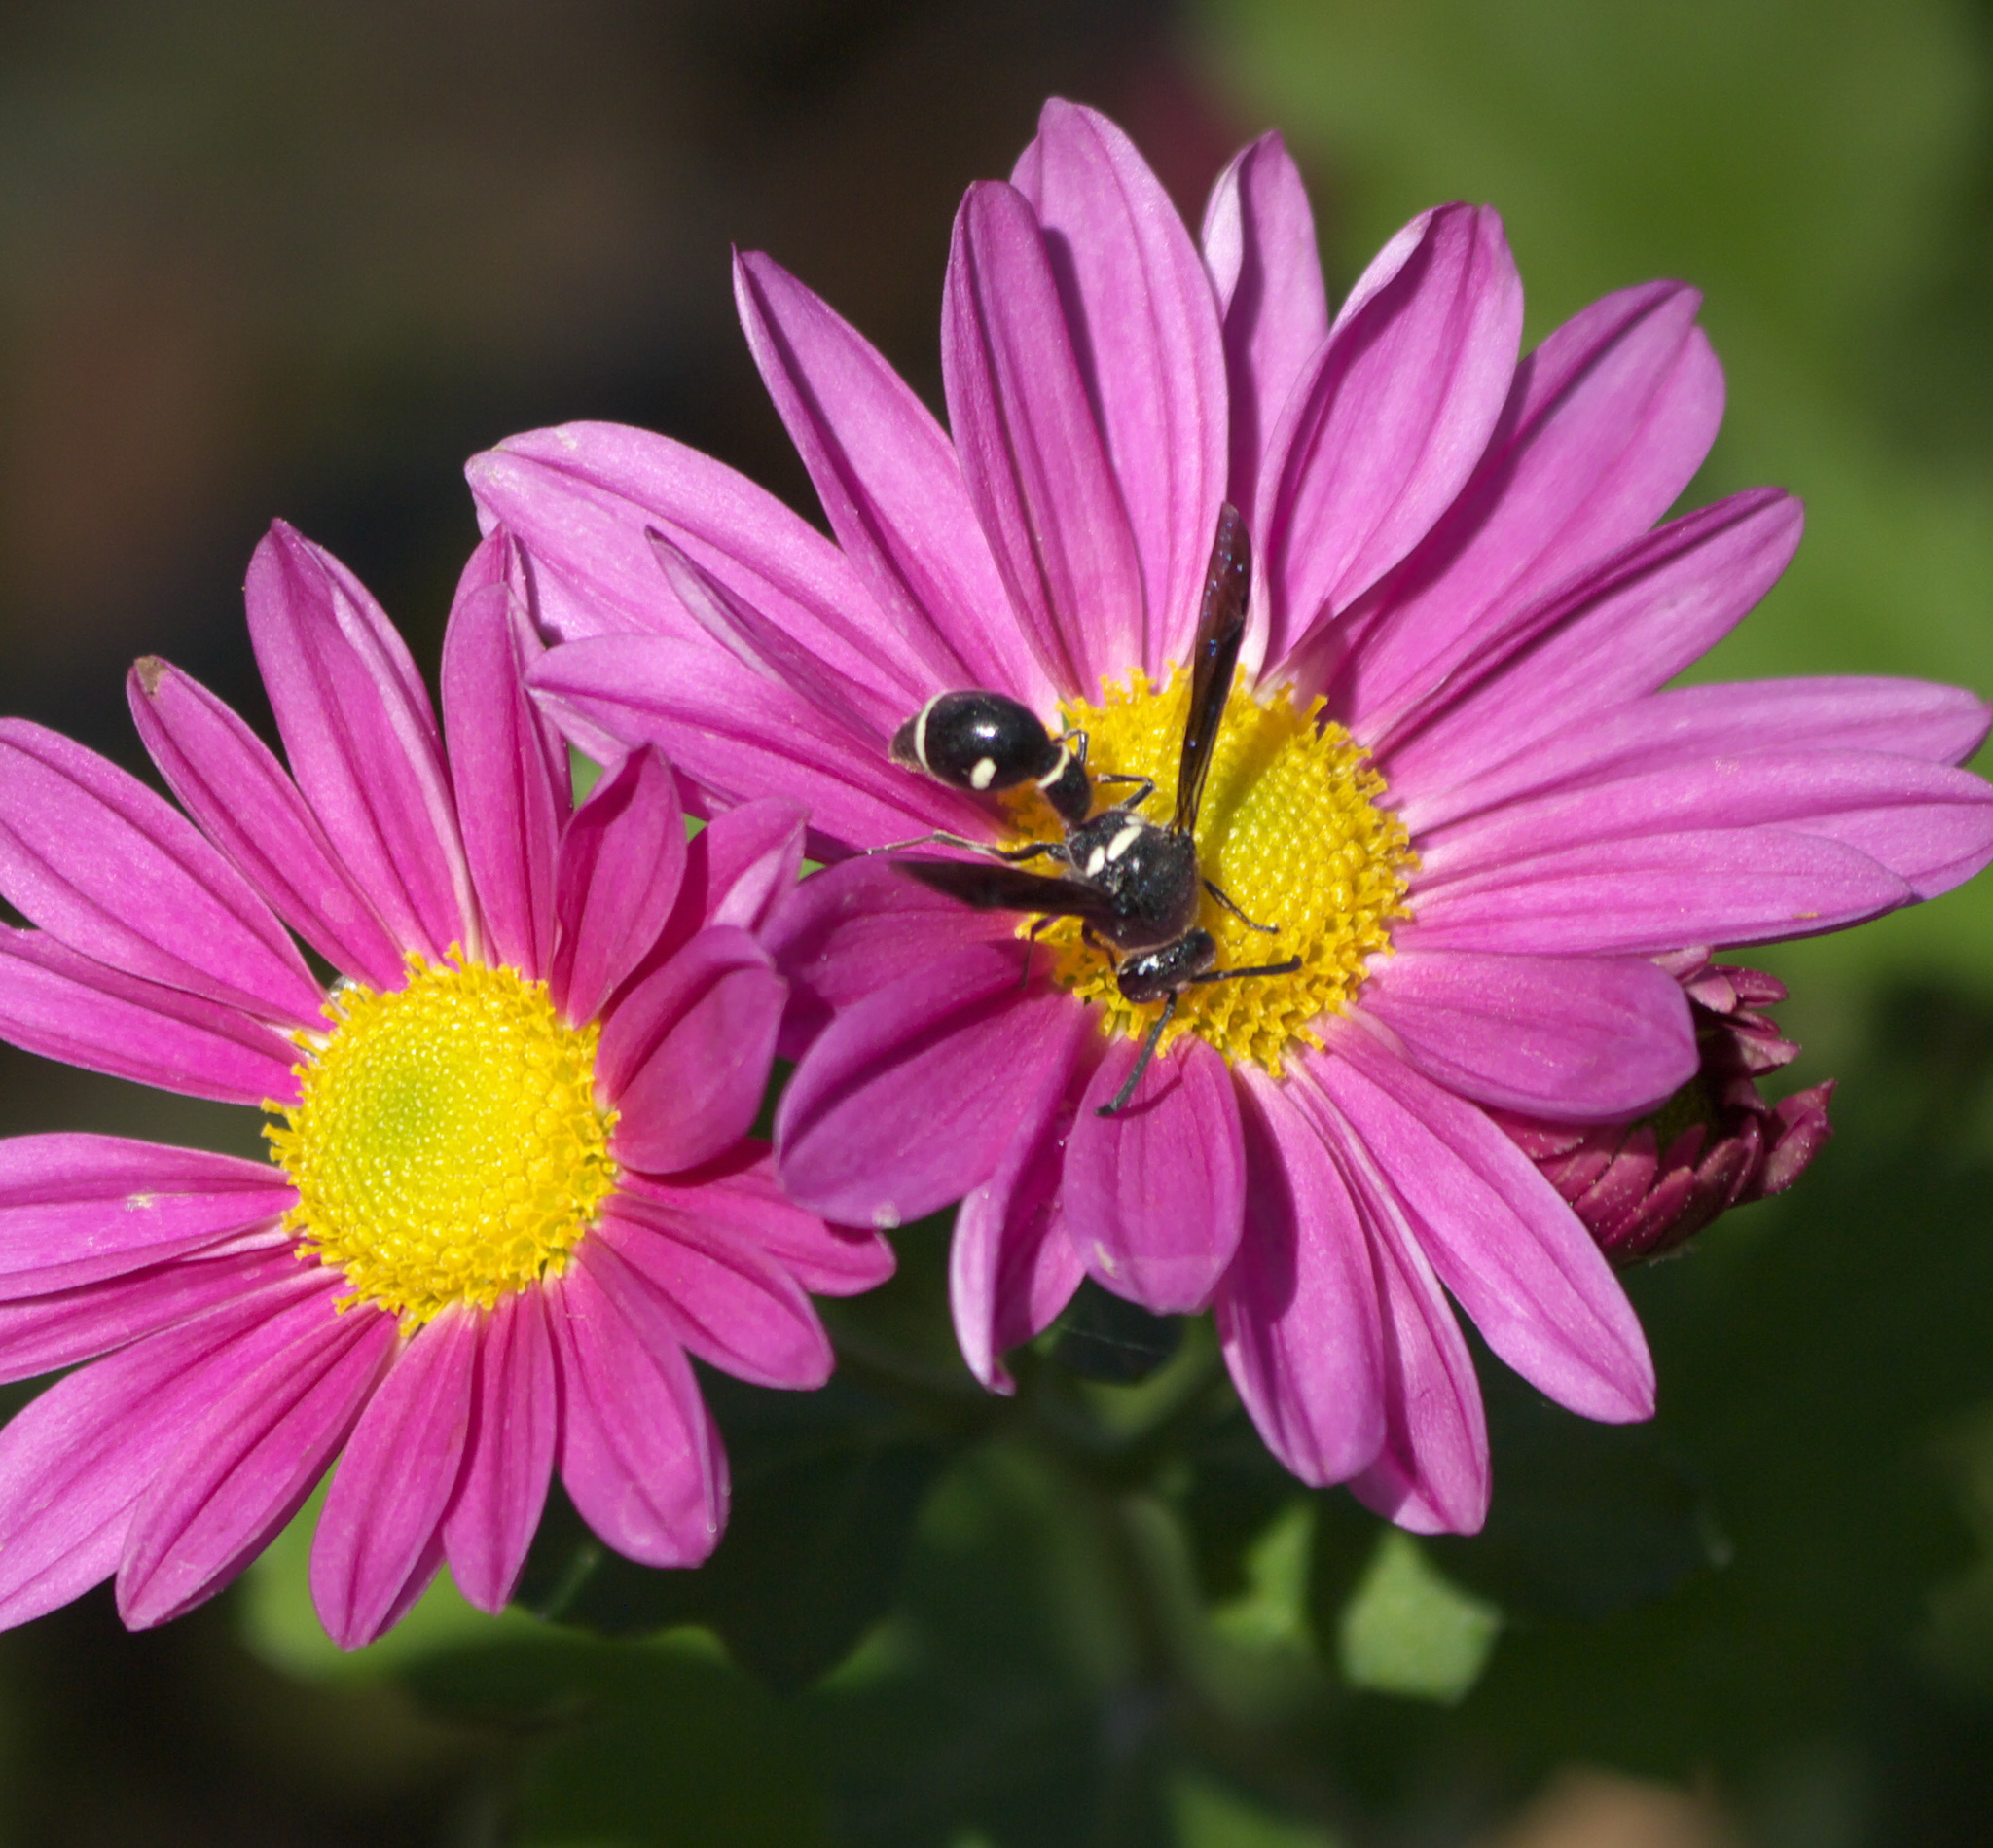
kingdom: Animalia
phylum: Arthropoda
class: Insecta
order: Hymenoptera
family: Vespidae
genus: Eumenes
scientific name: Eumenes fraternus
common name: Fraternal potter wasp
